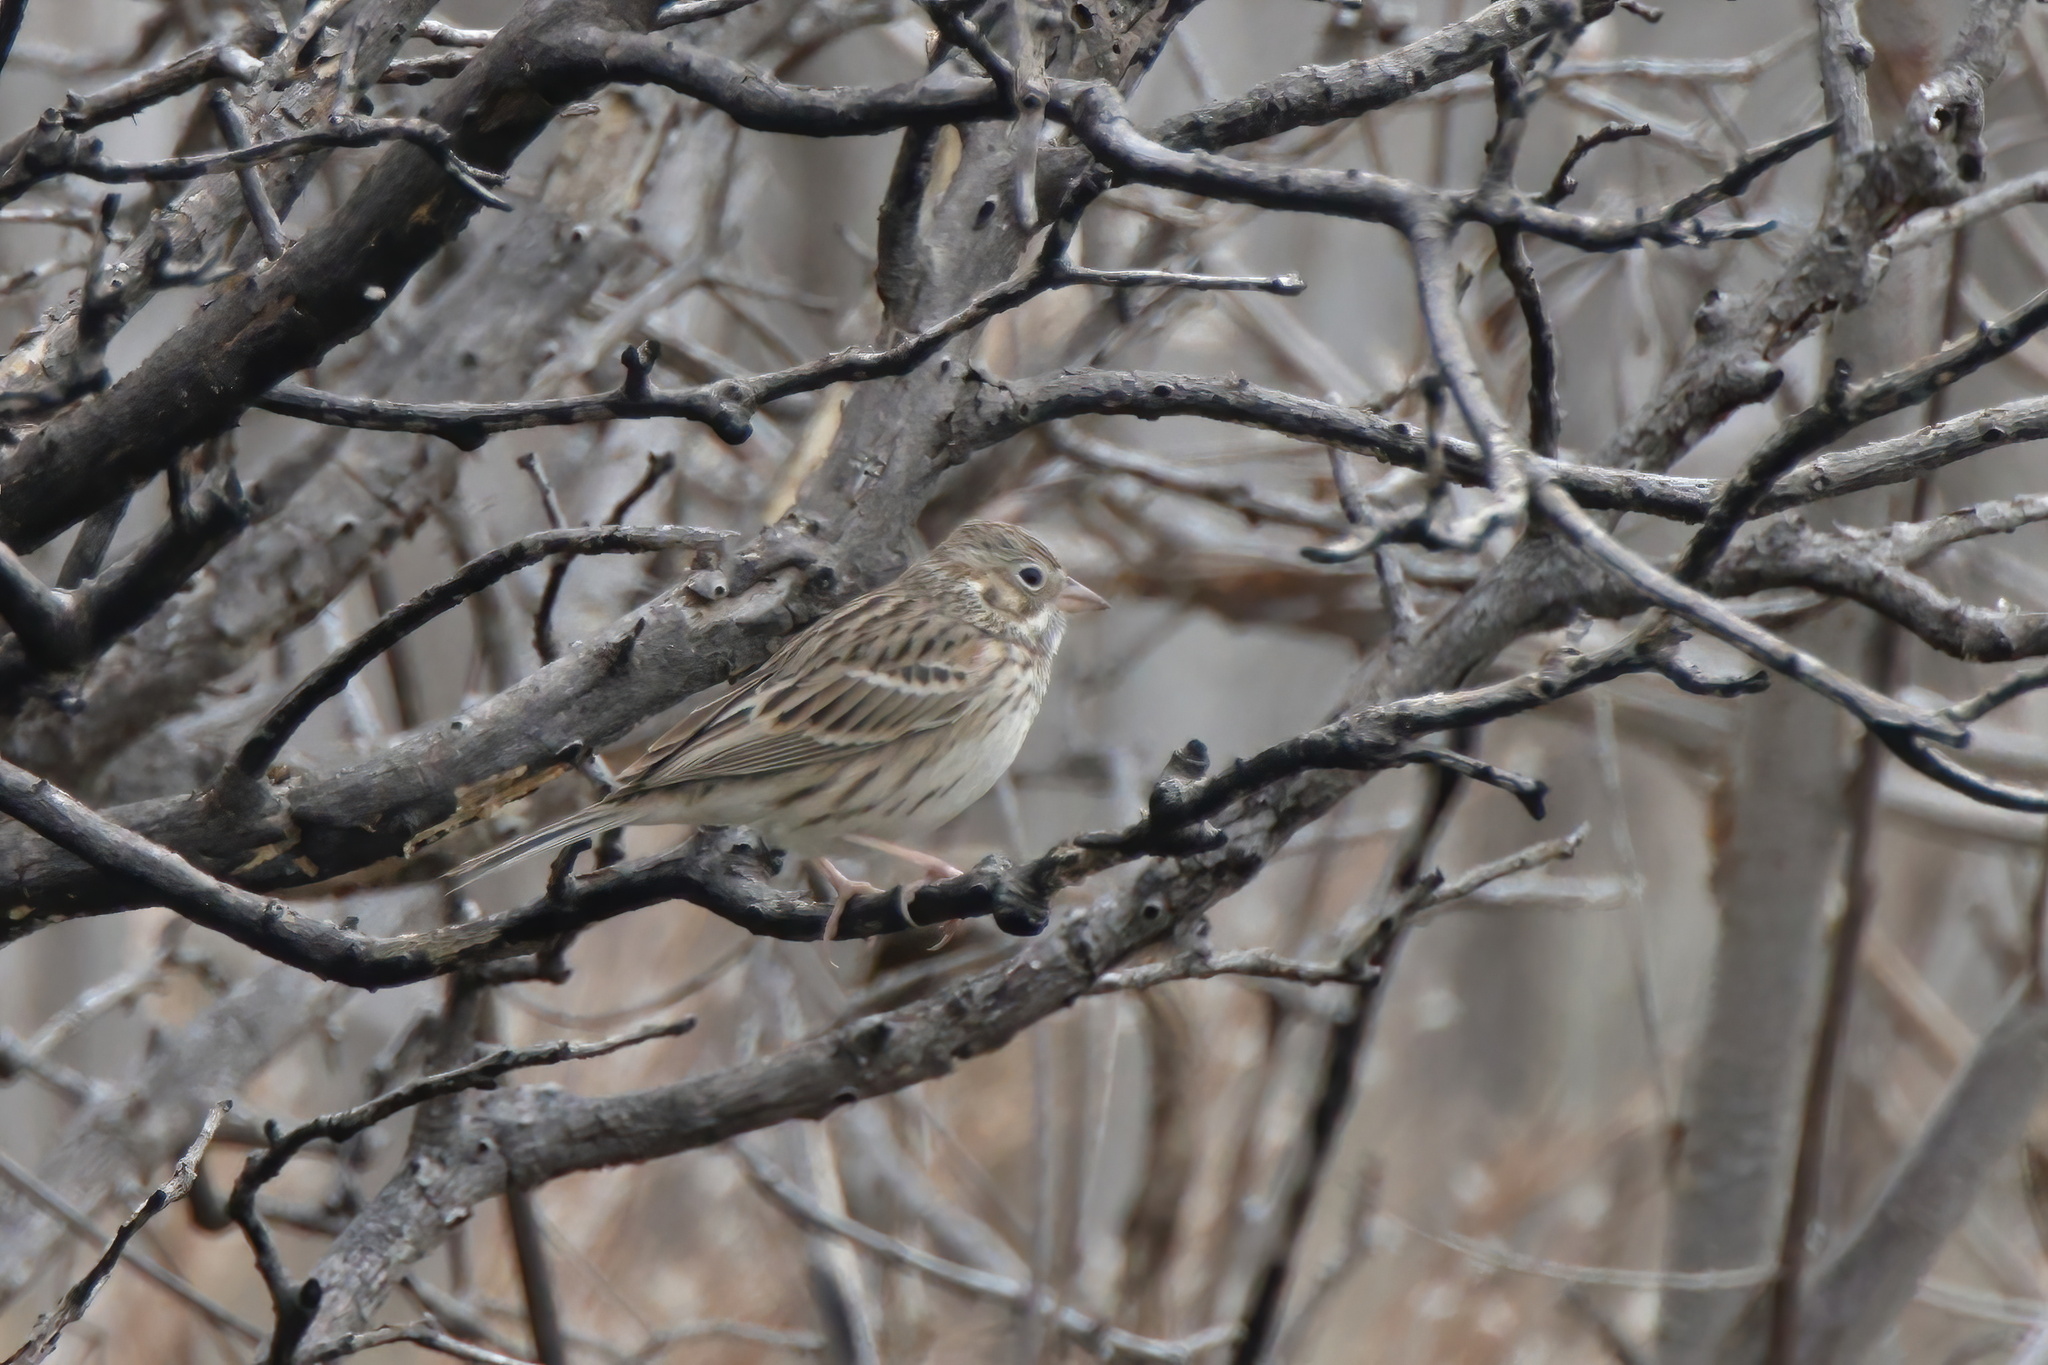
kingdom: Animalia
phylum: Chordata
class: Aves
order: Passeriformes
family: Passerellidae
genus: Pooecetes
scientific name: Pooecetes gramineus
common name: Vesper sparrow
